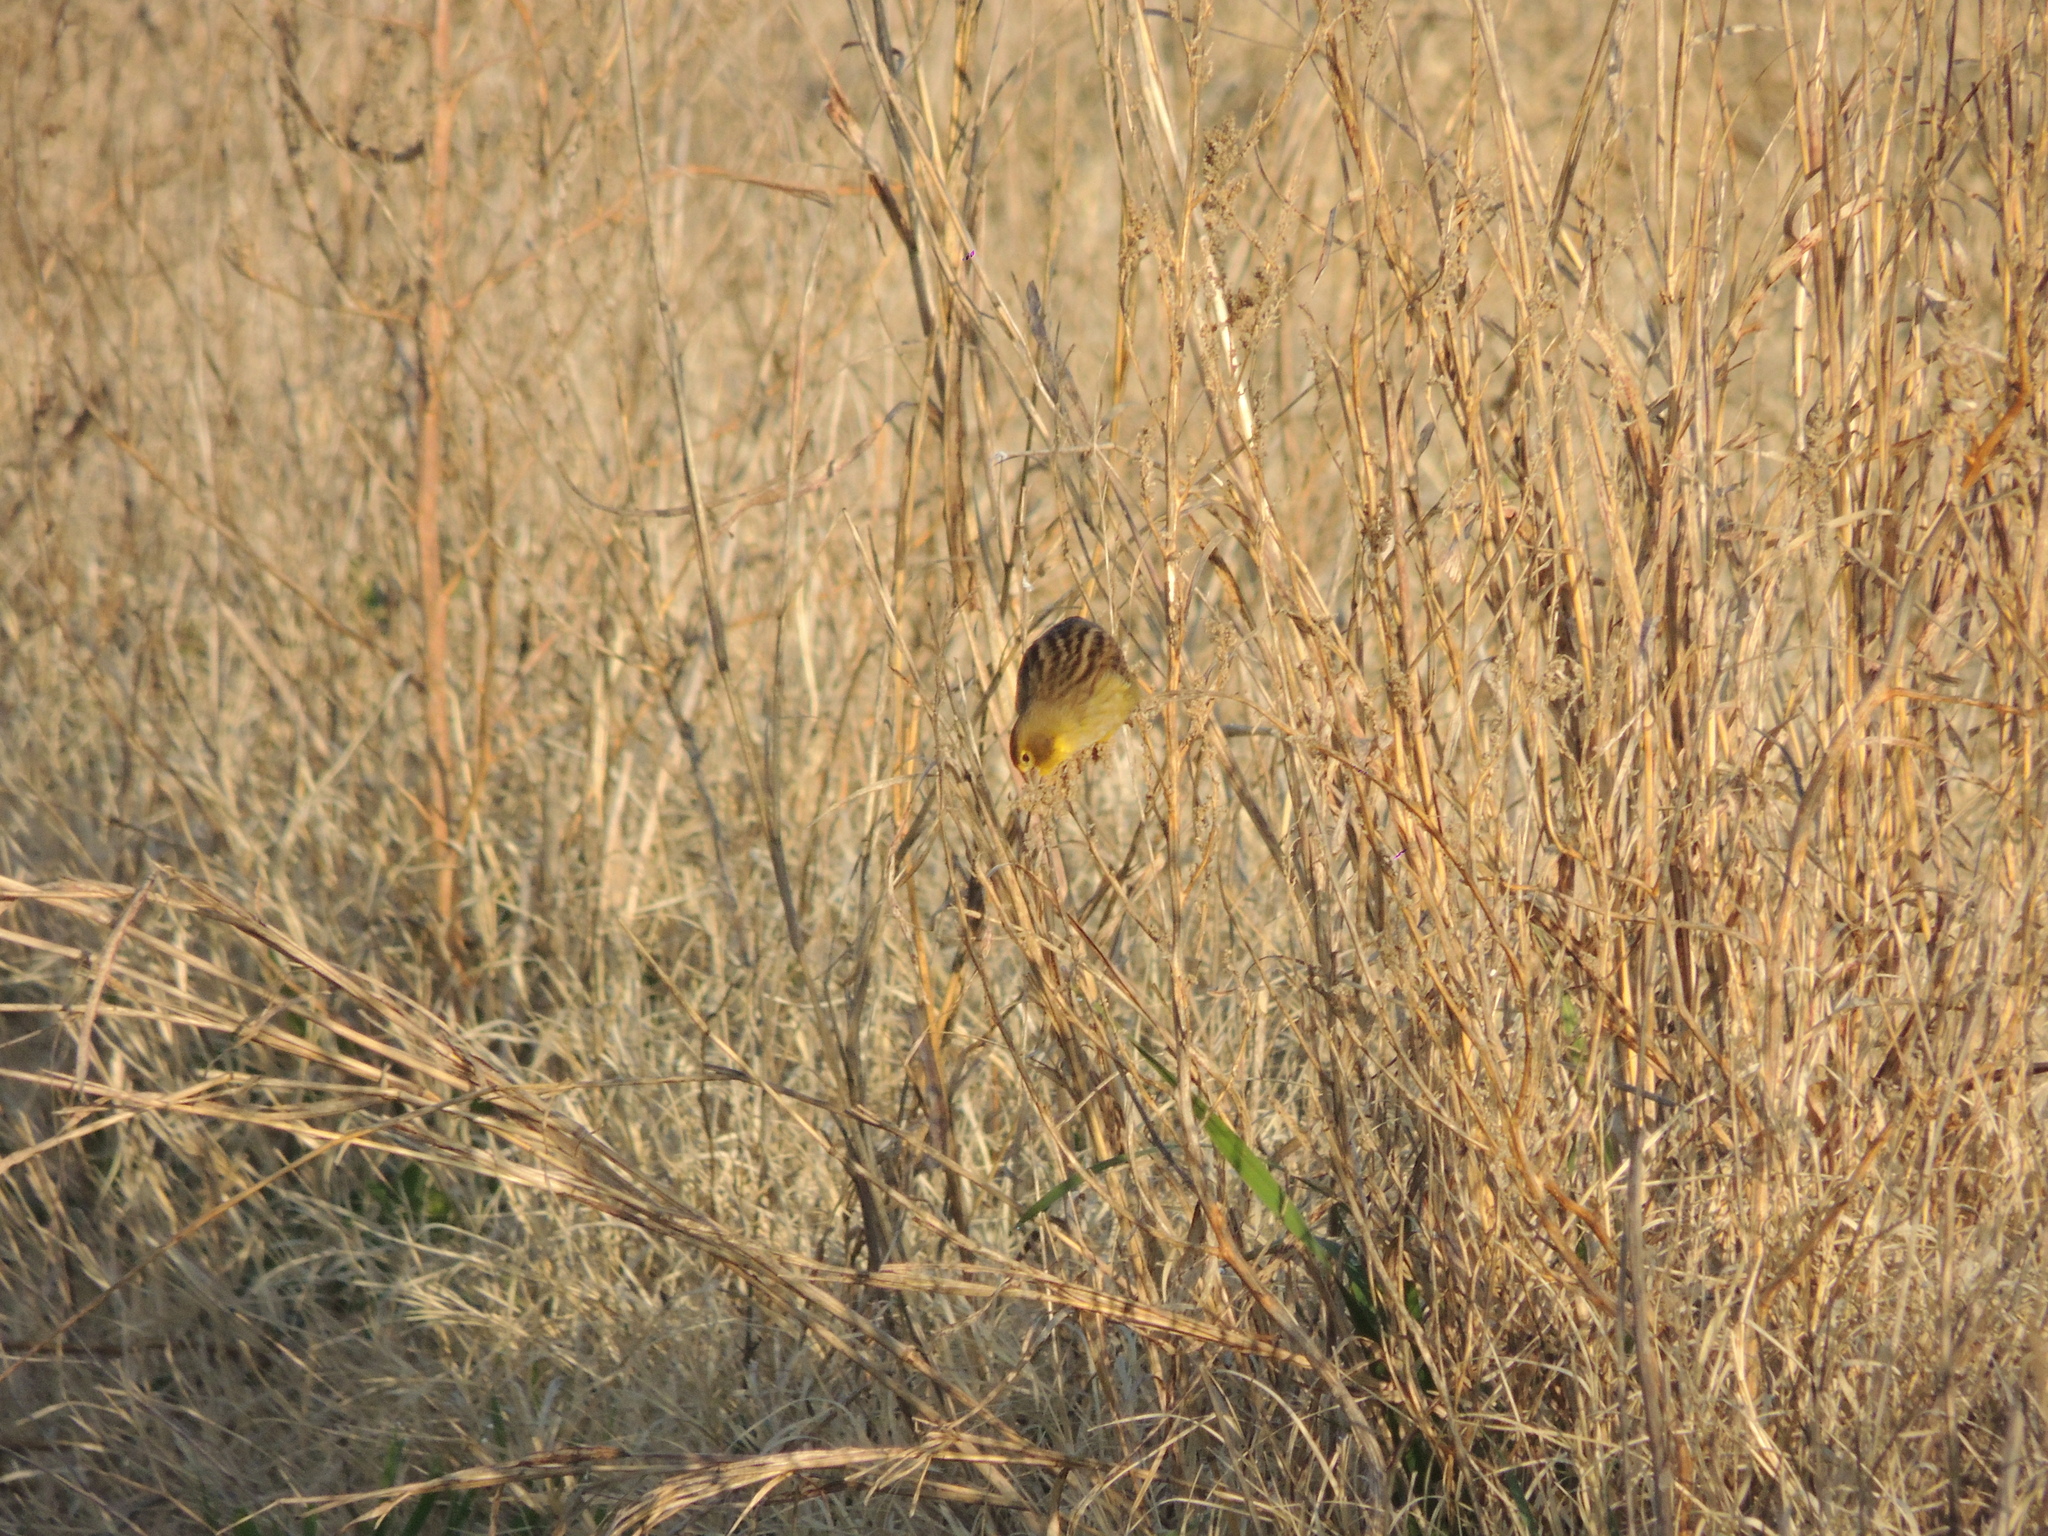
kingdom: Animalia
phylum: Chordata
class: Aves
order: Passeriformes
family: Thraupidae
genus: Sicalis
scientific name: Sicalis luteola
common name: Grassland yellow-finch
